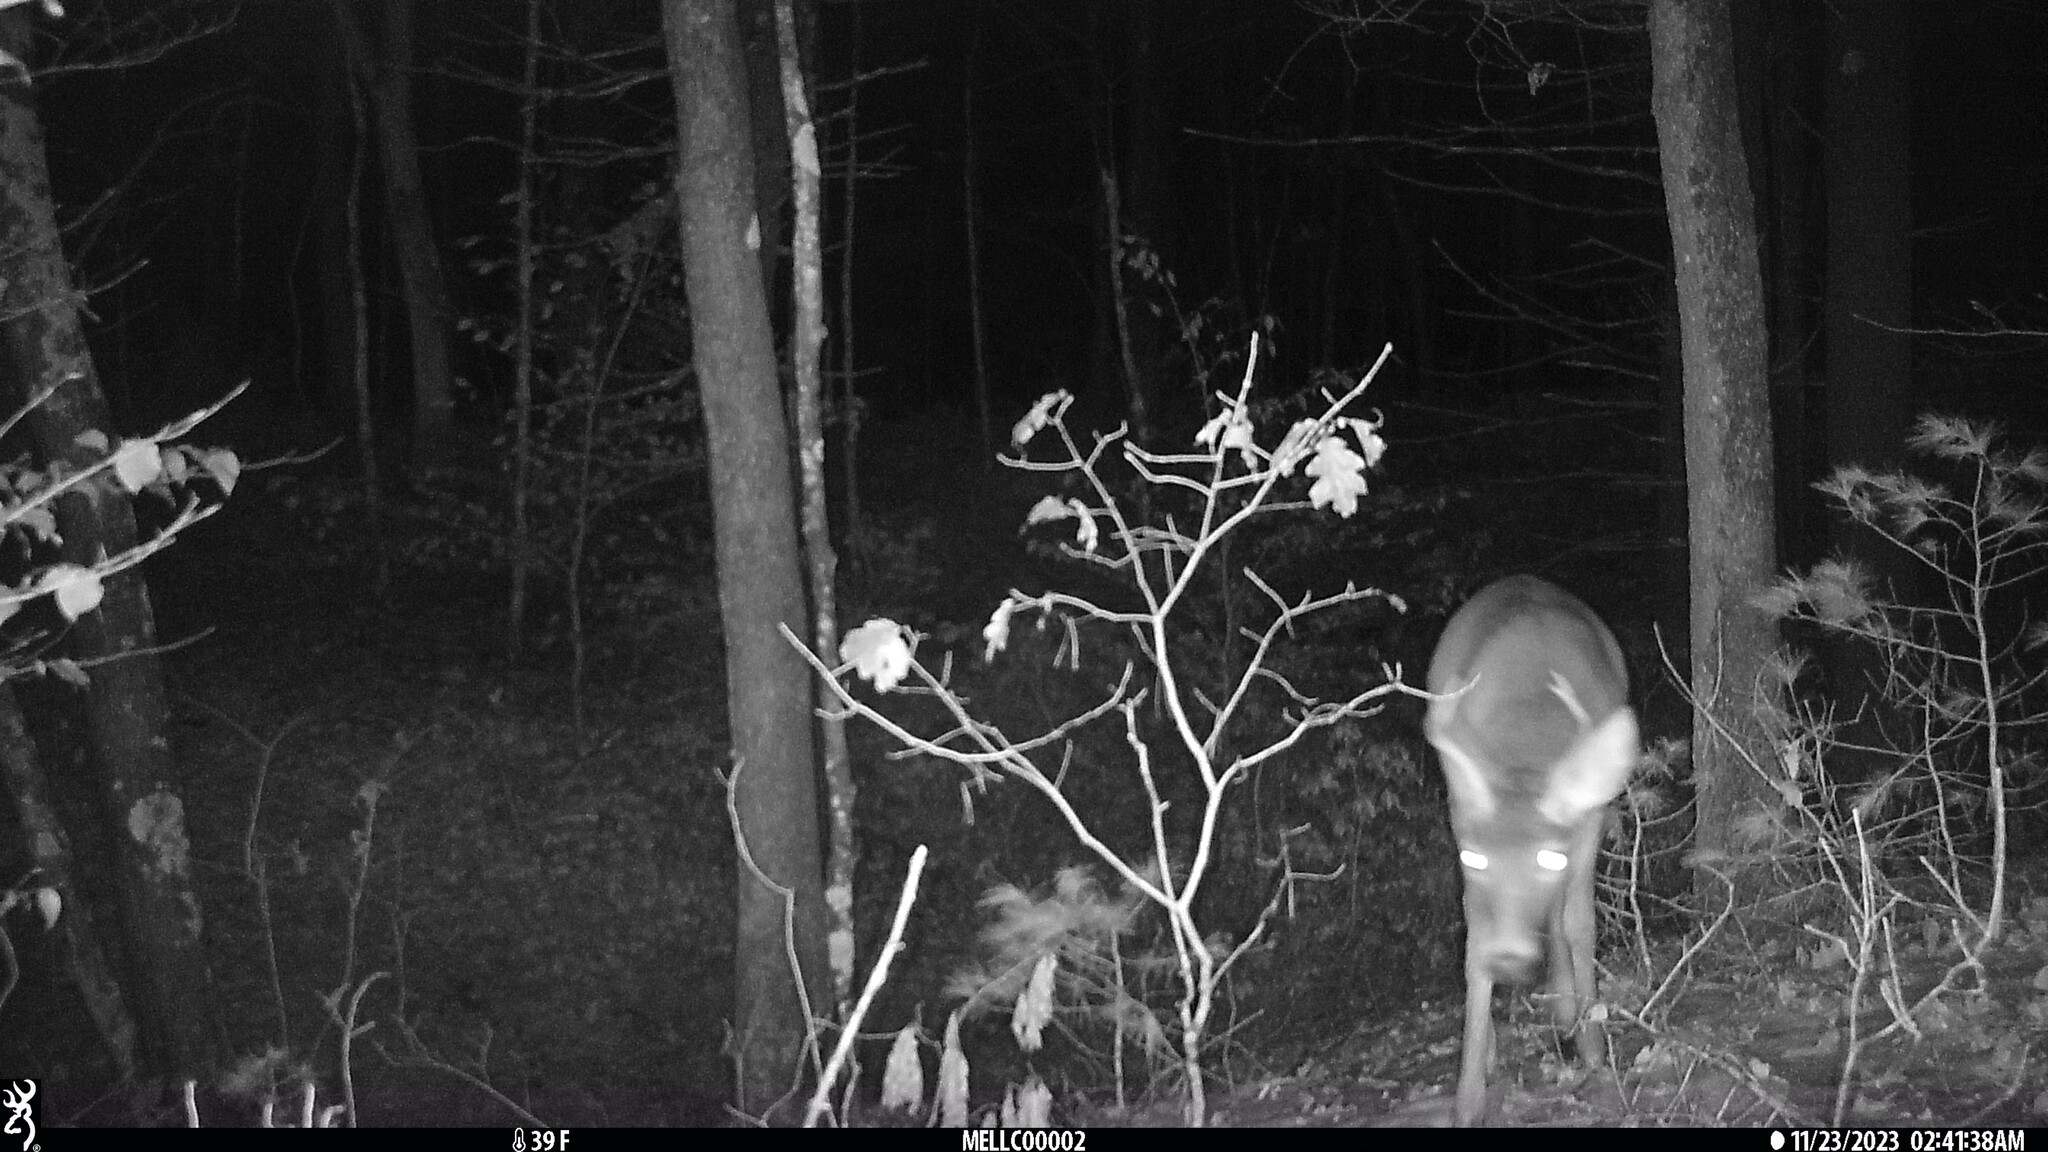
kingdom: Animalia
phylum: Chordata
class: Mammalia
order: Artiodactyla
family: Cervidae
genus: Odocoileus
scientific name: Odocoileus virginianus
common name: White-tailed deer
